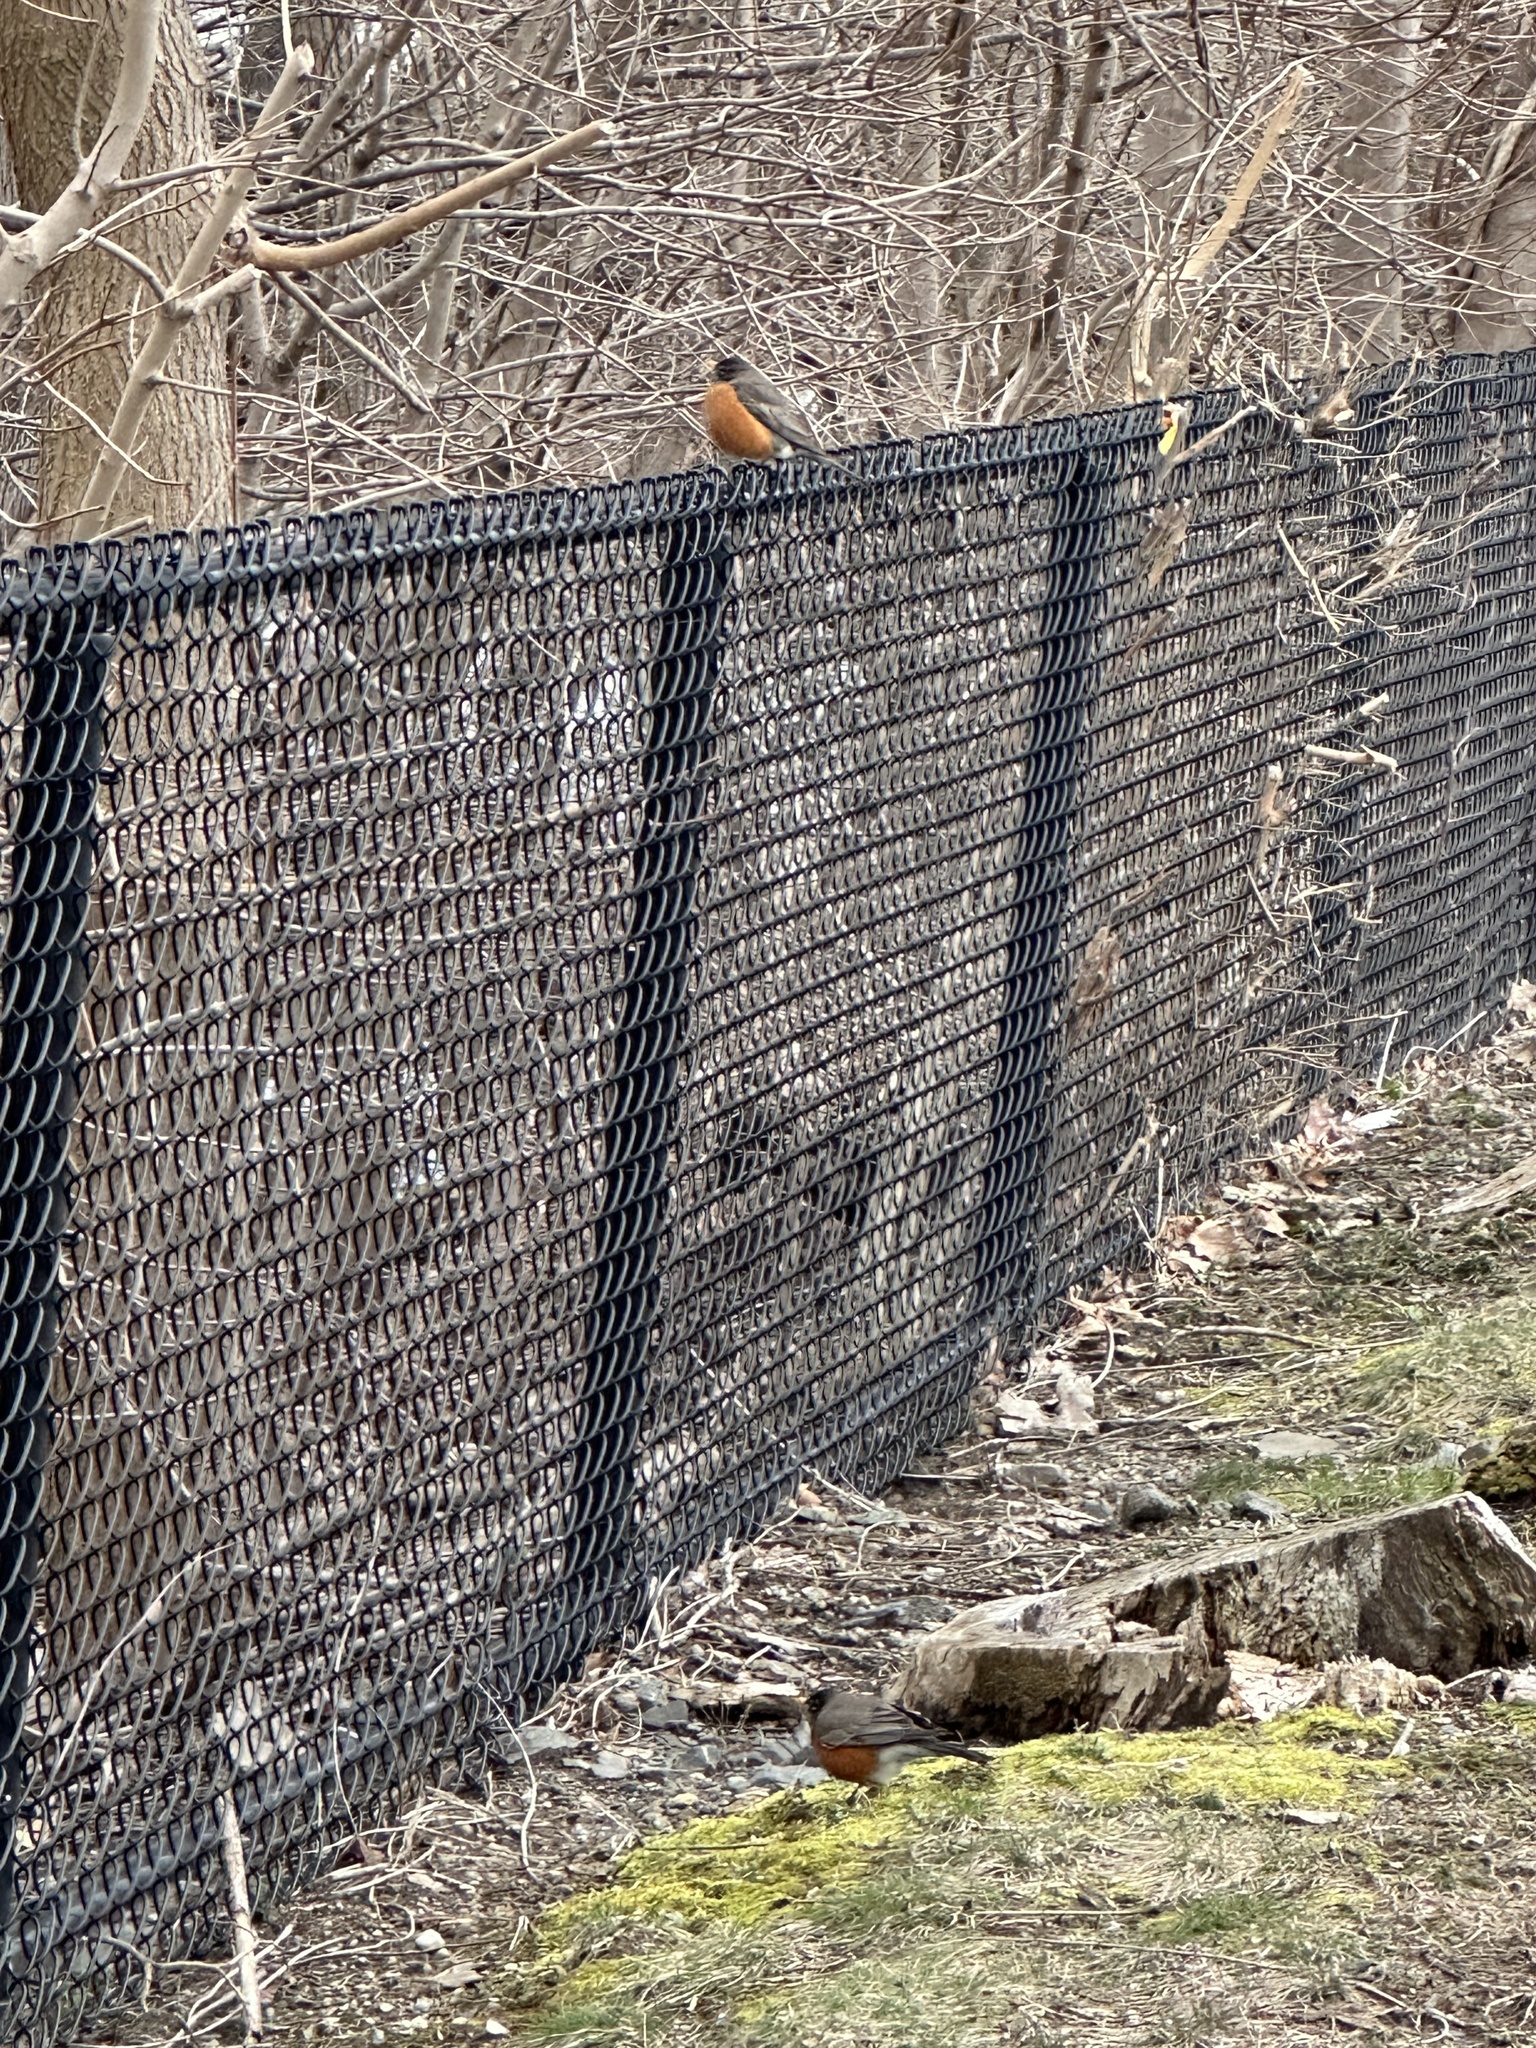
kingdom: Animalia
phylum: Chordata
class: Aves
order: Passeriformes
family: Turdidae
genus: Turdus
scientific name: Turdus migratorius
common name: American robin
